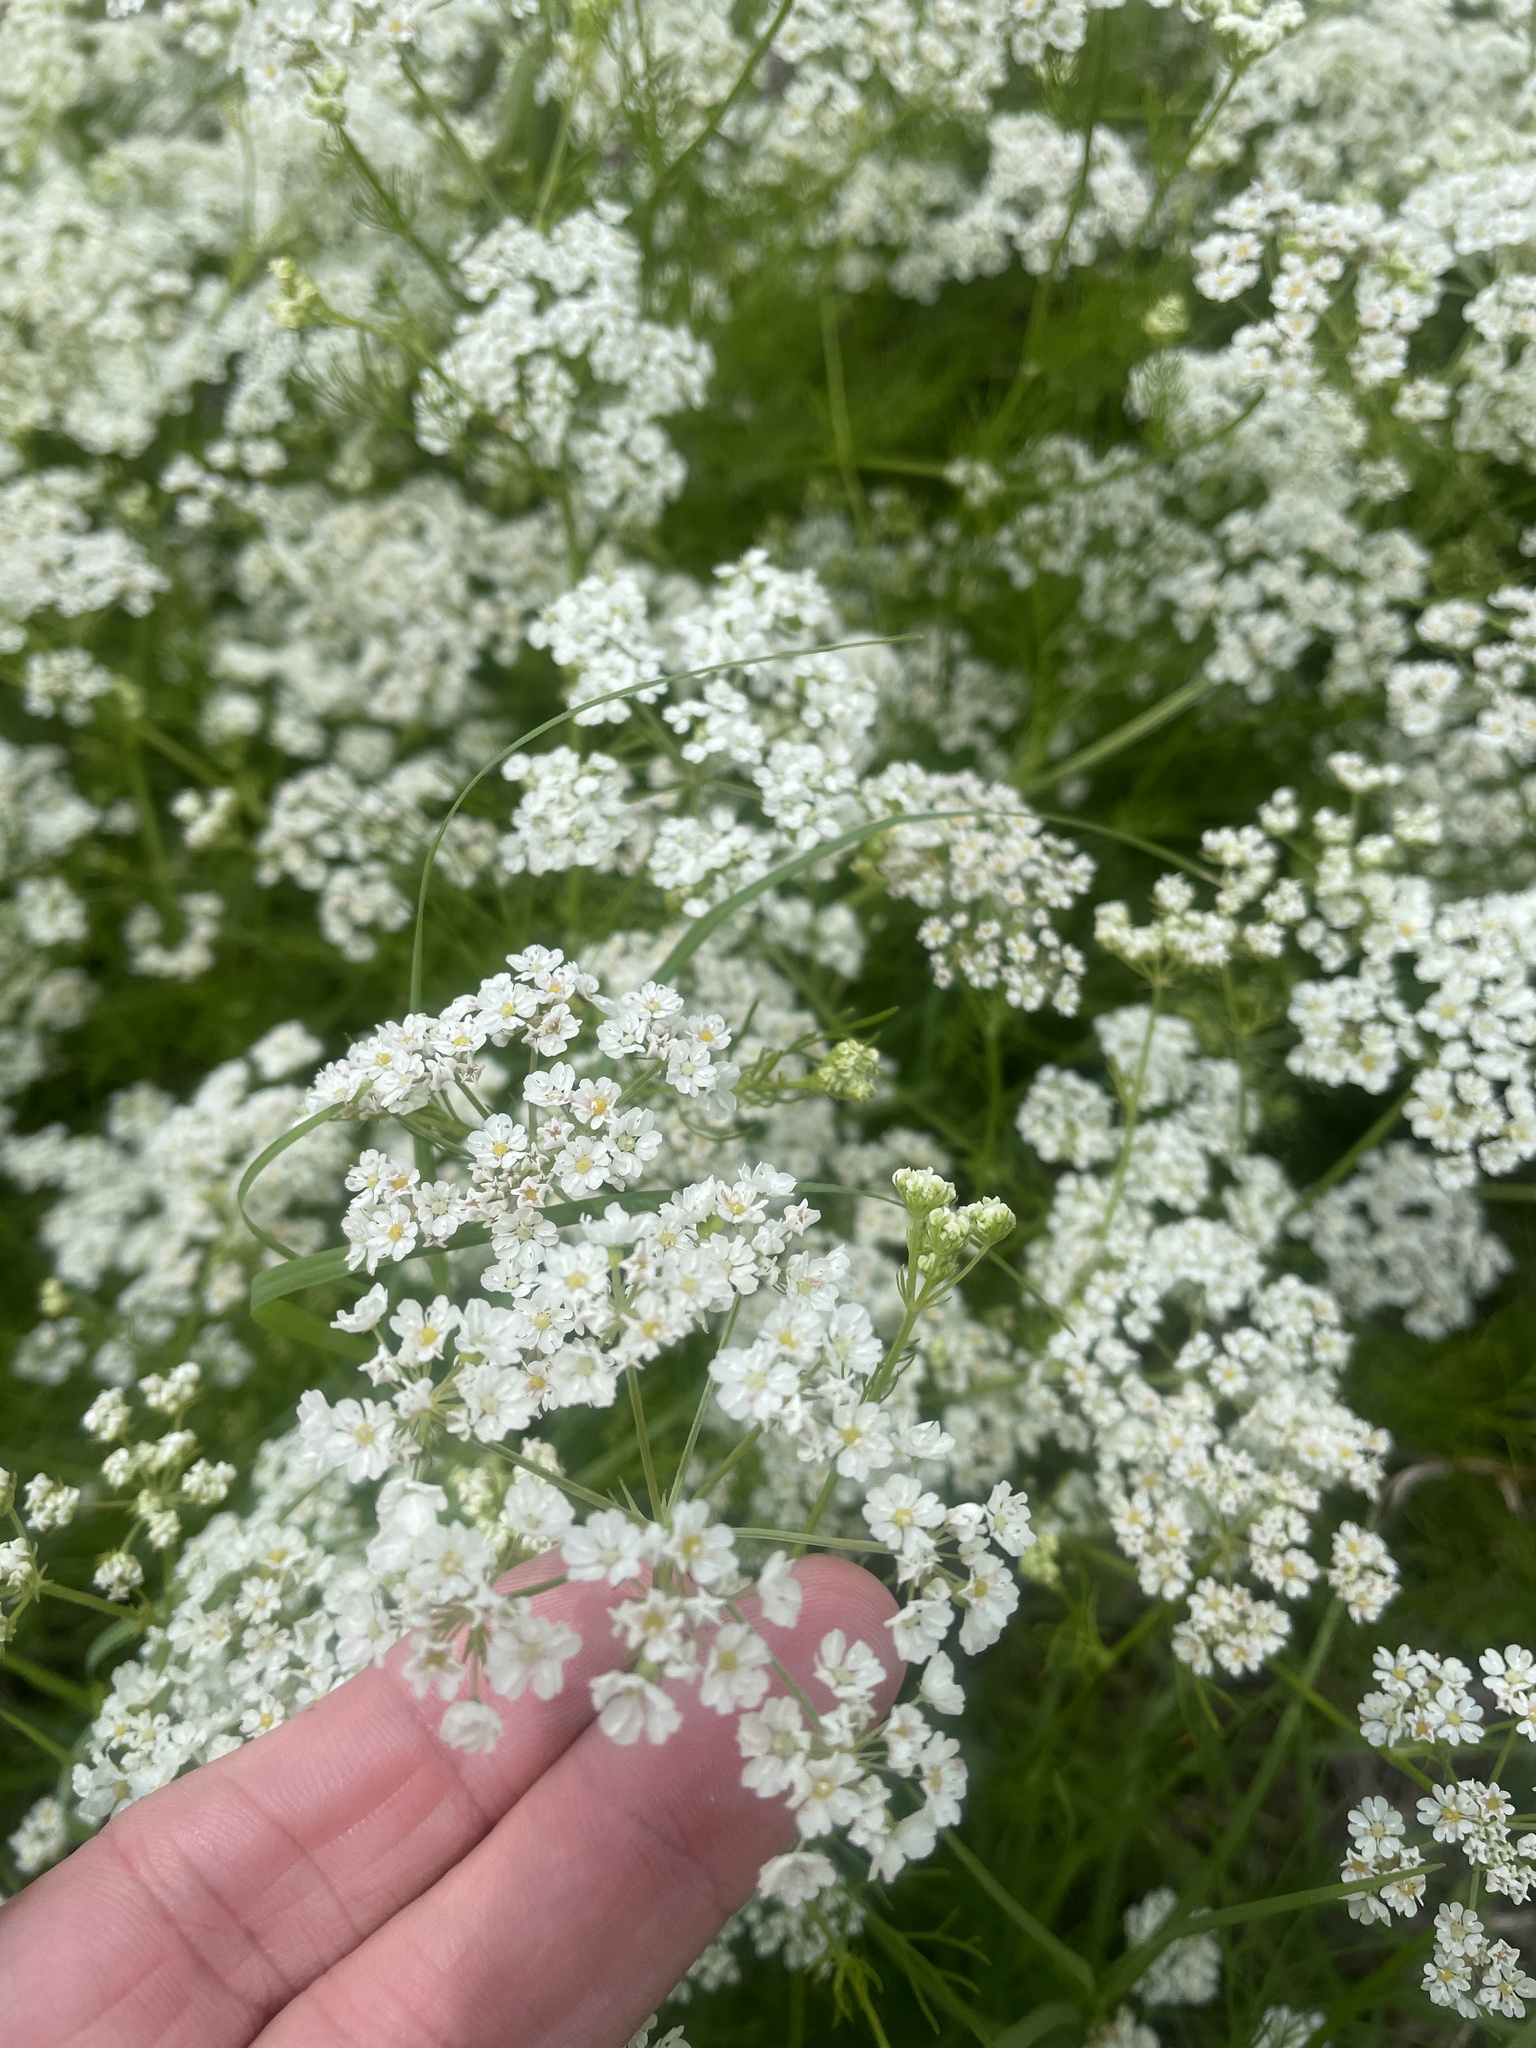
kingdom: Plantae
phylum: Tracheophyta
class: Magnoliopsida
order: Apiales
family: Apiaceae
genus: Atrema
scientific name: Atrema americanum
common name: Prairie-bishop
